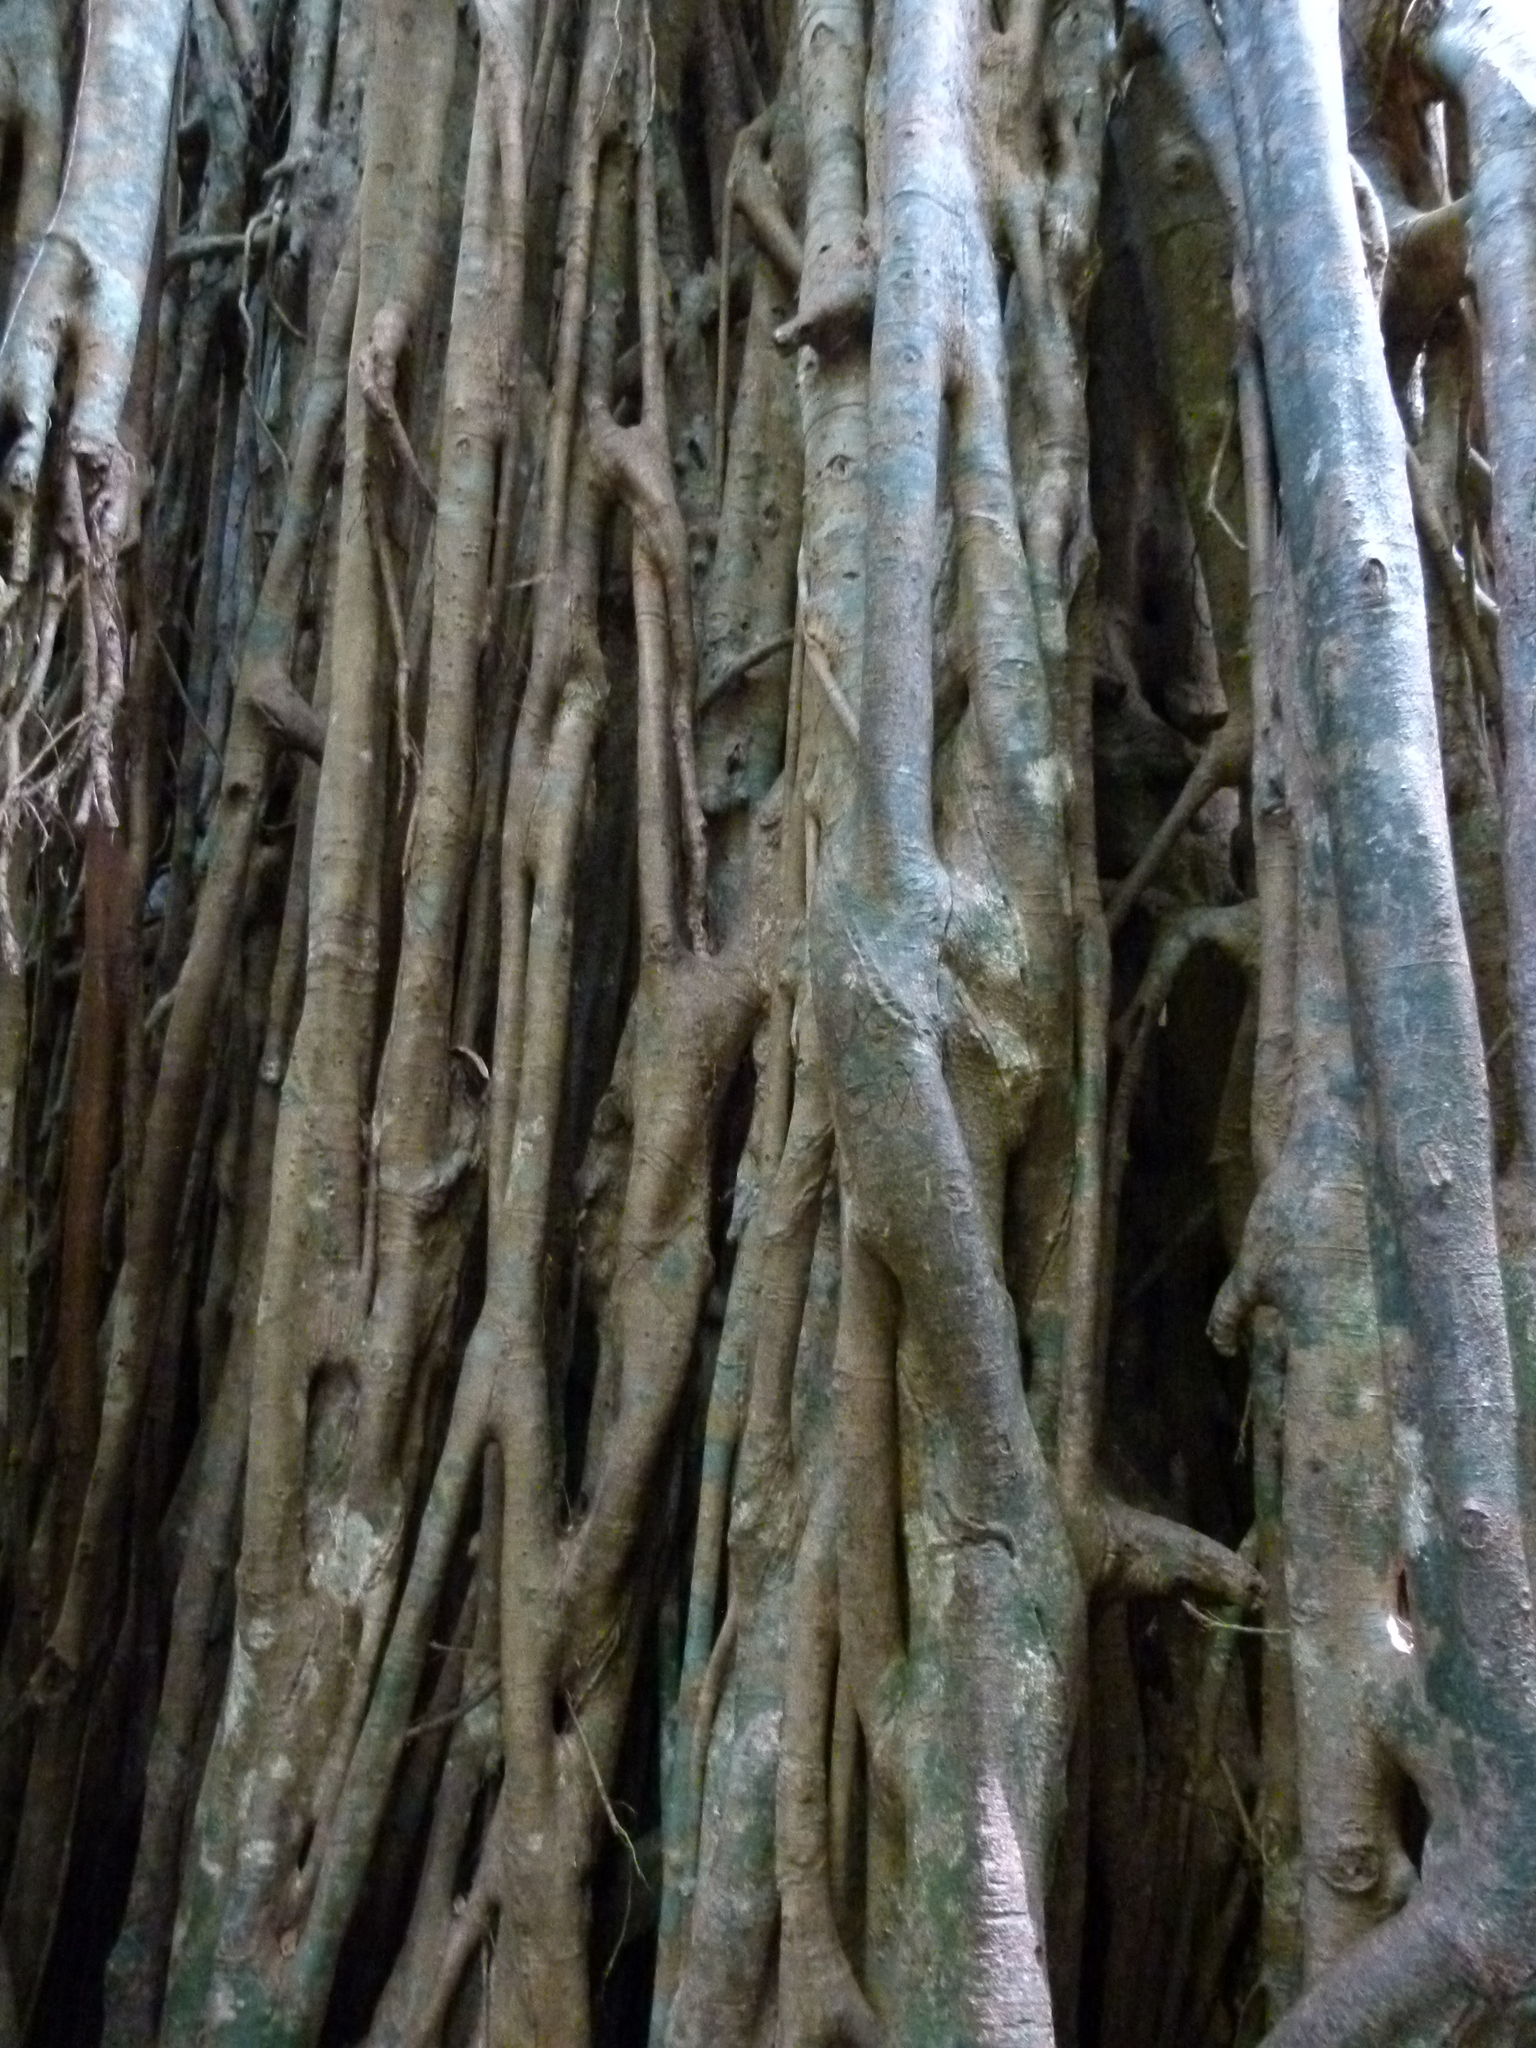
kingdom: Plantae
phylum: Tracheophyta
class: Magnoliopsida
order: Rosales
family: Moraceae
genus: Ficus
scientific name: Ficus virens
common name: Spotted fig
